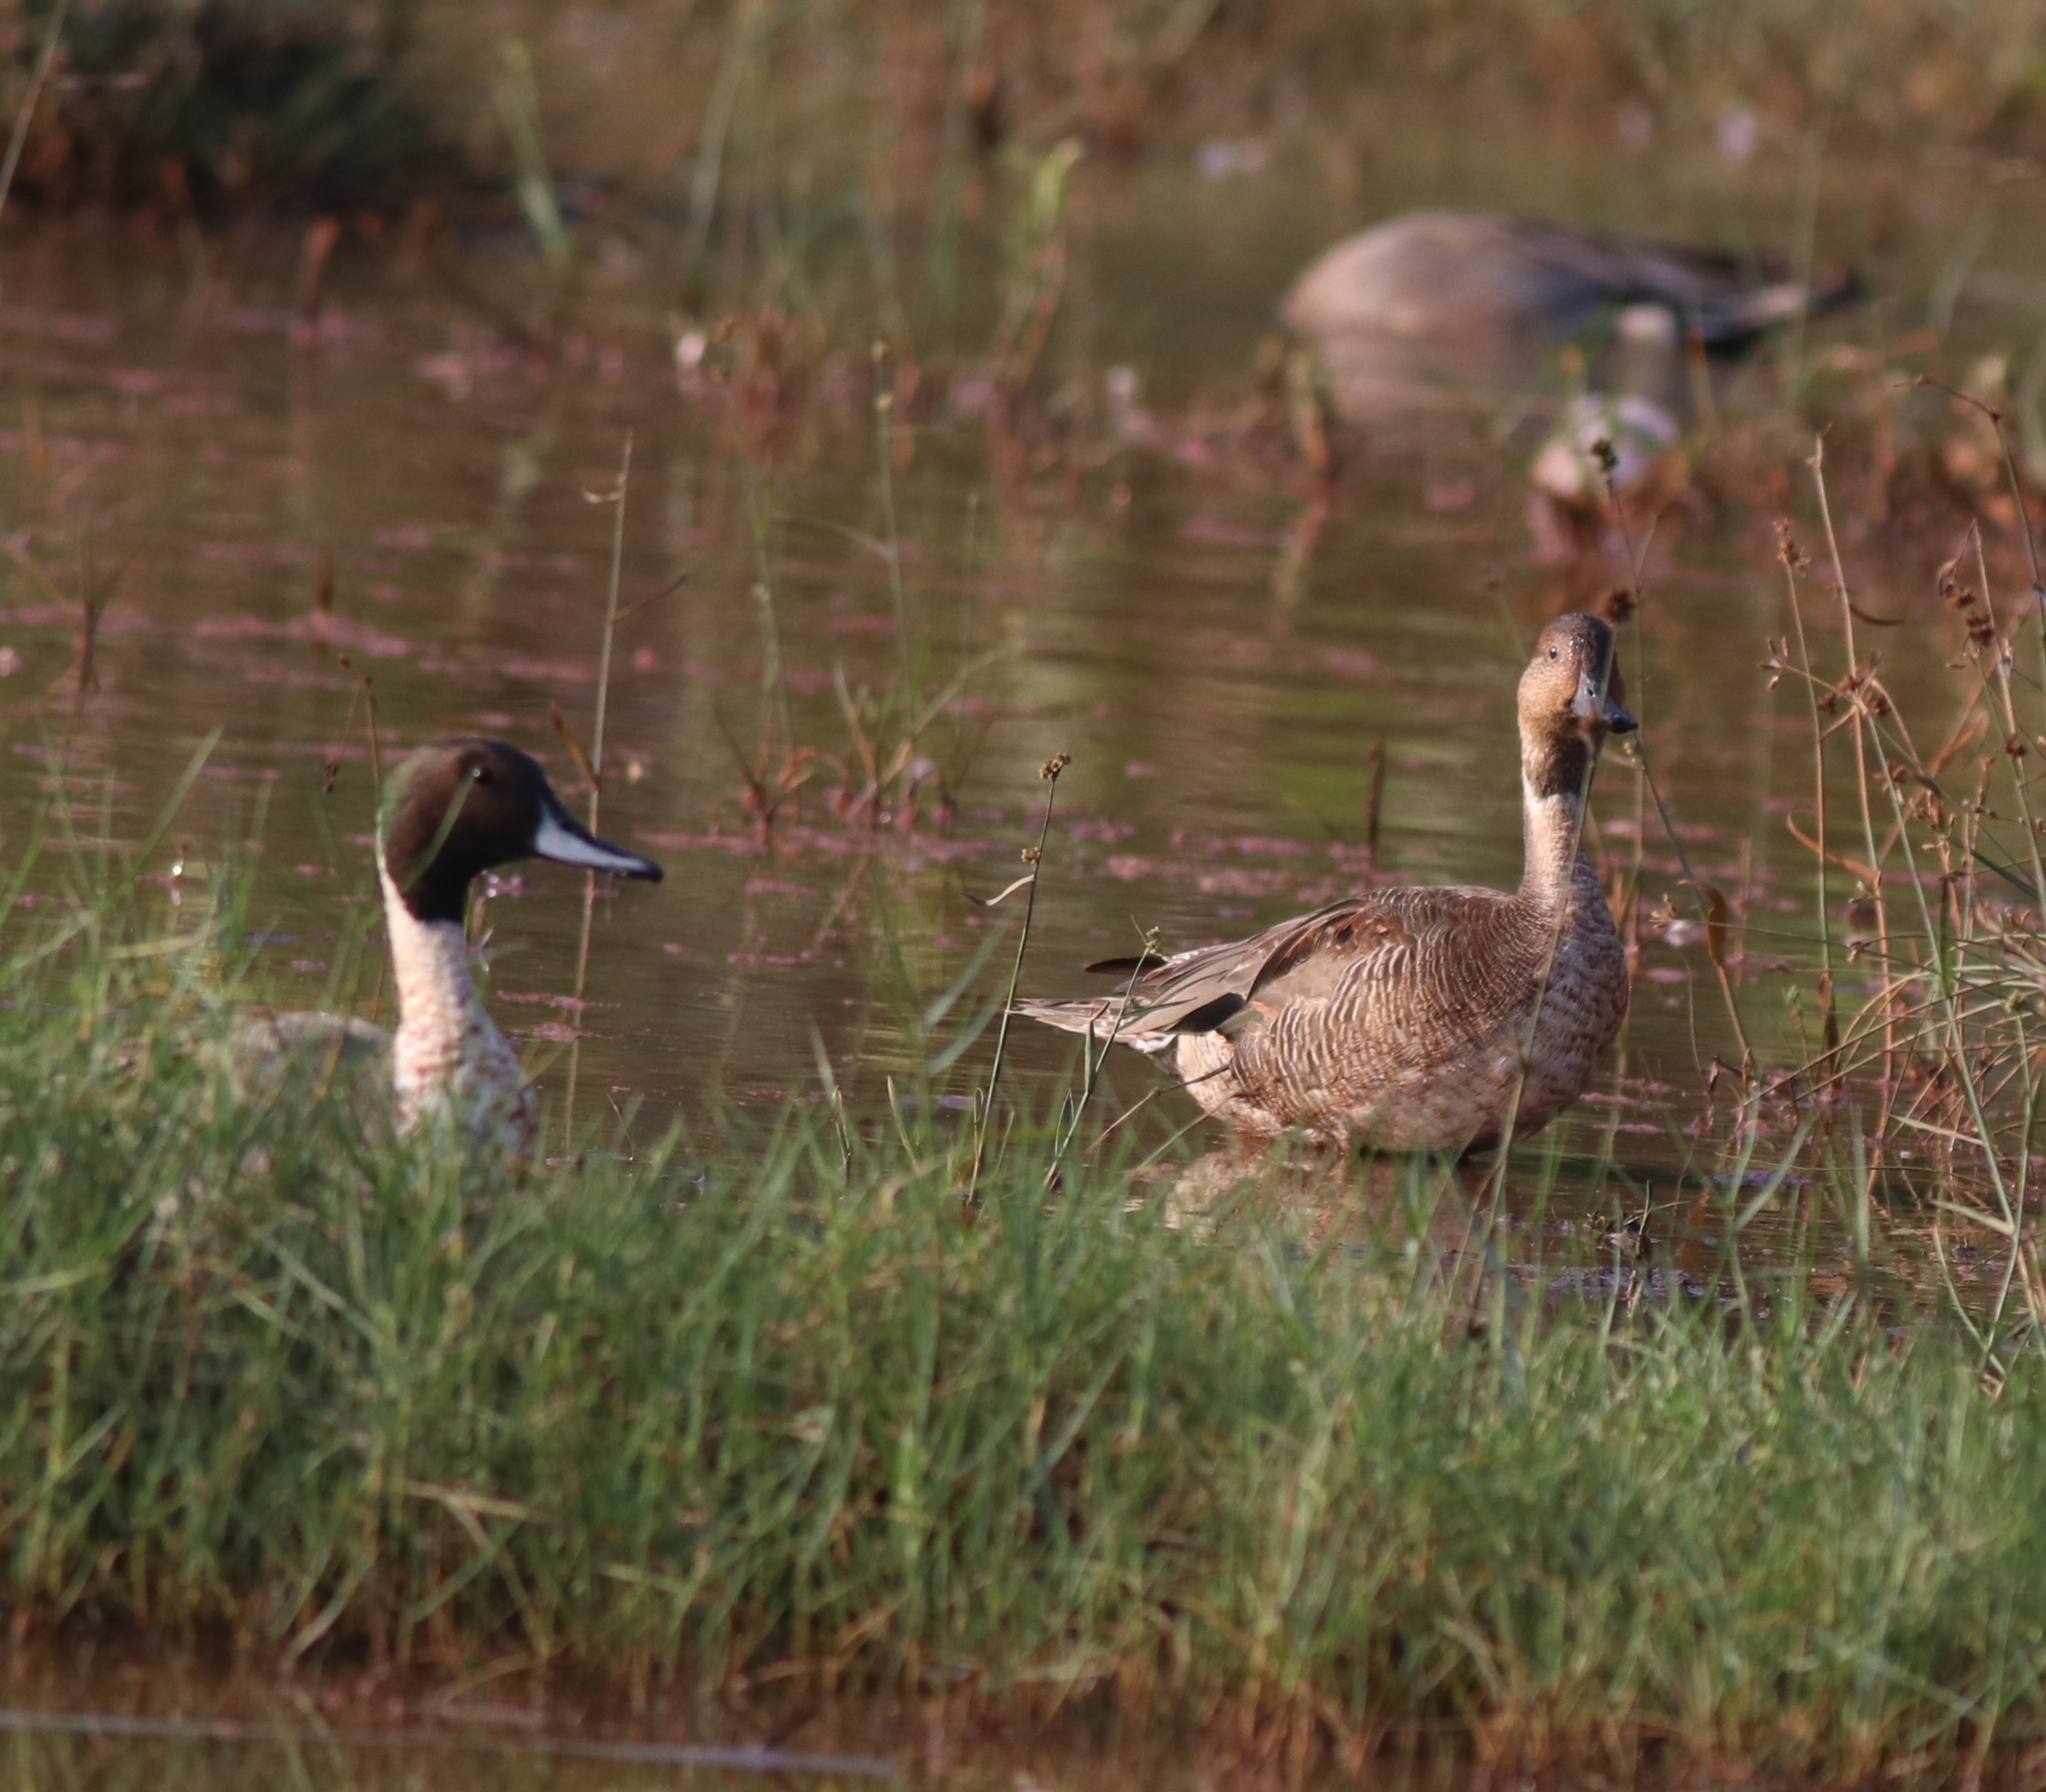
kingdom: Animalia
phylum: Chordata
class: Aves
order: Anseriformes
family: Anatidae
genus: Anas
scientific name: Anas acuta
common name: Northern pintail
